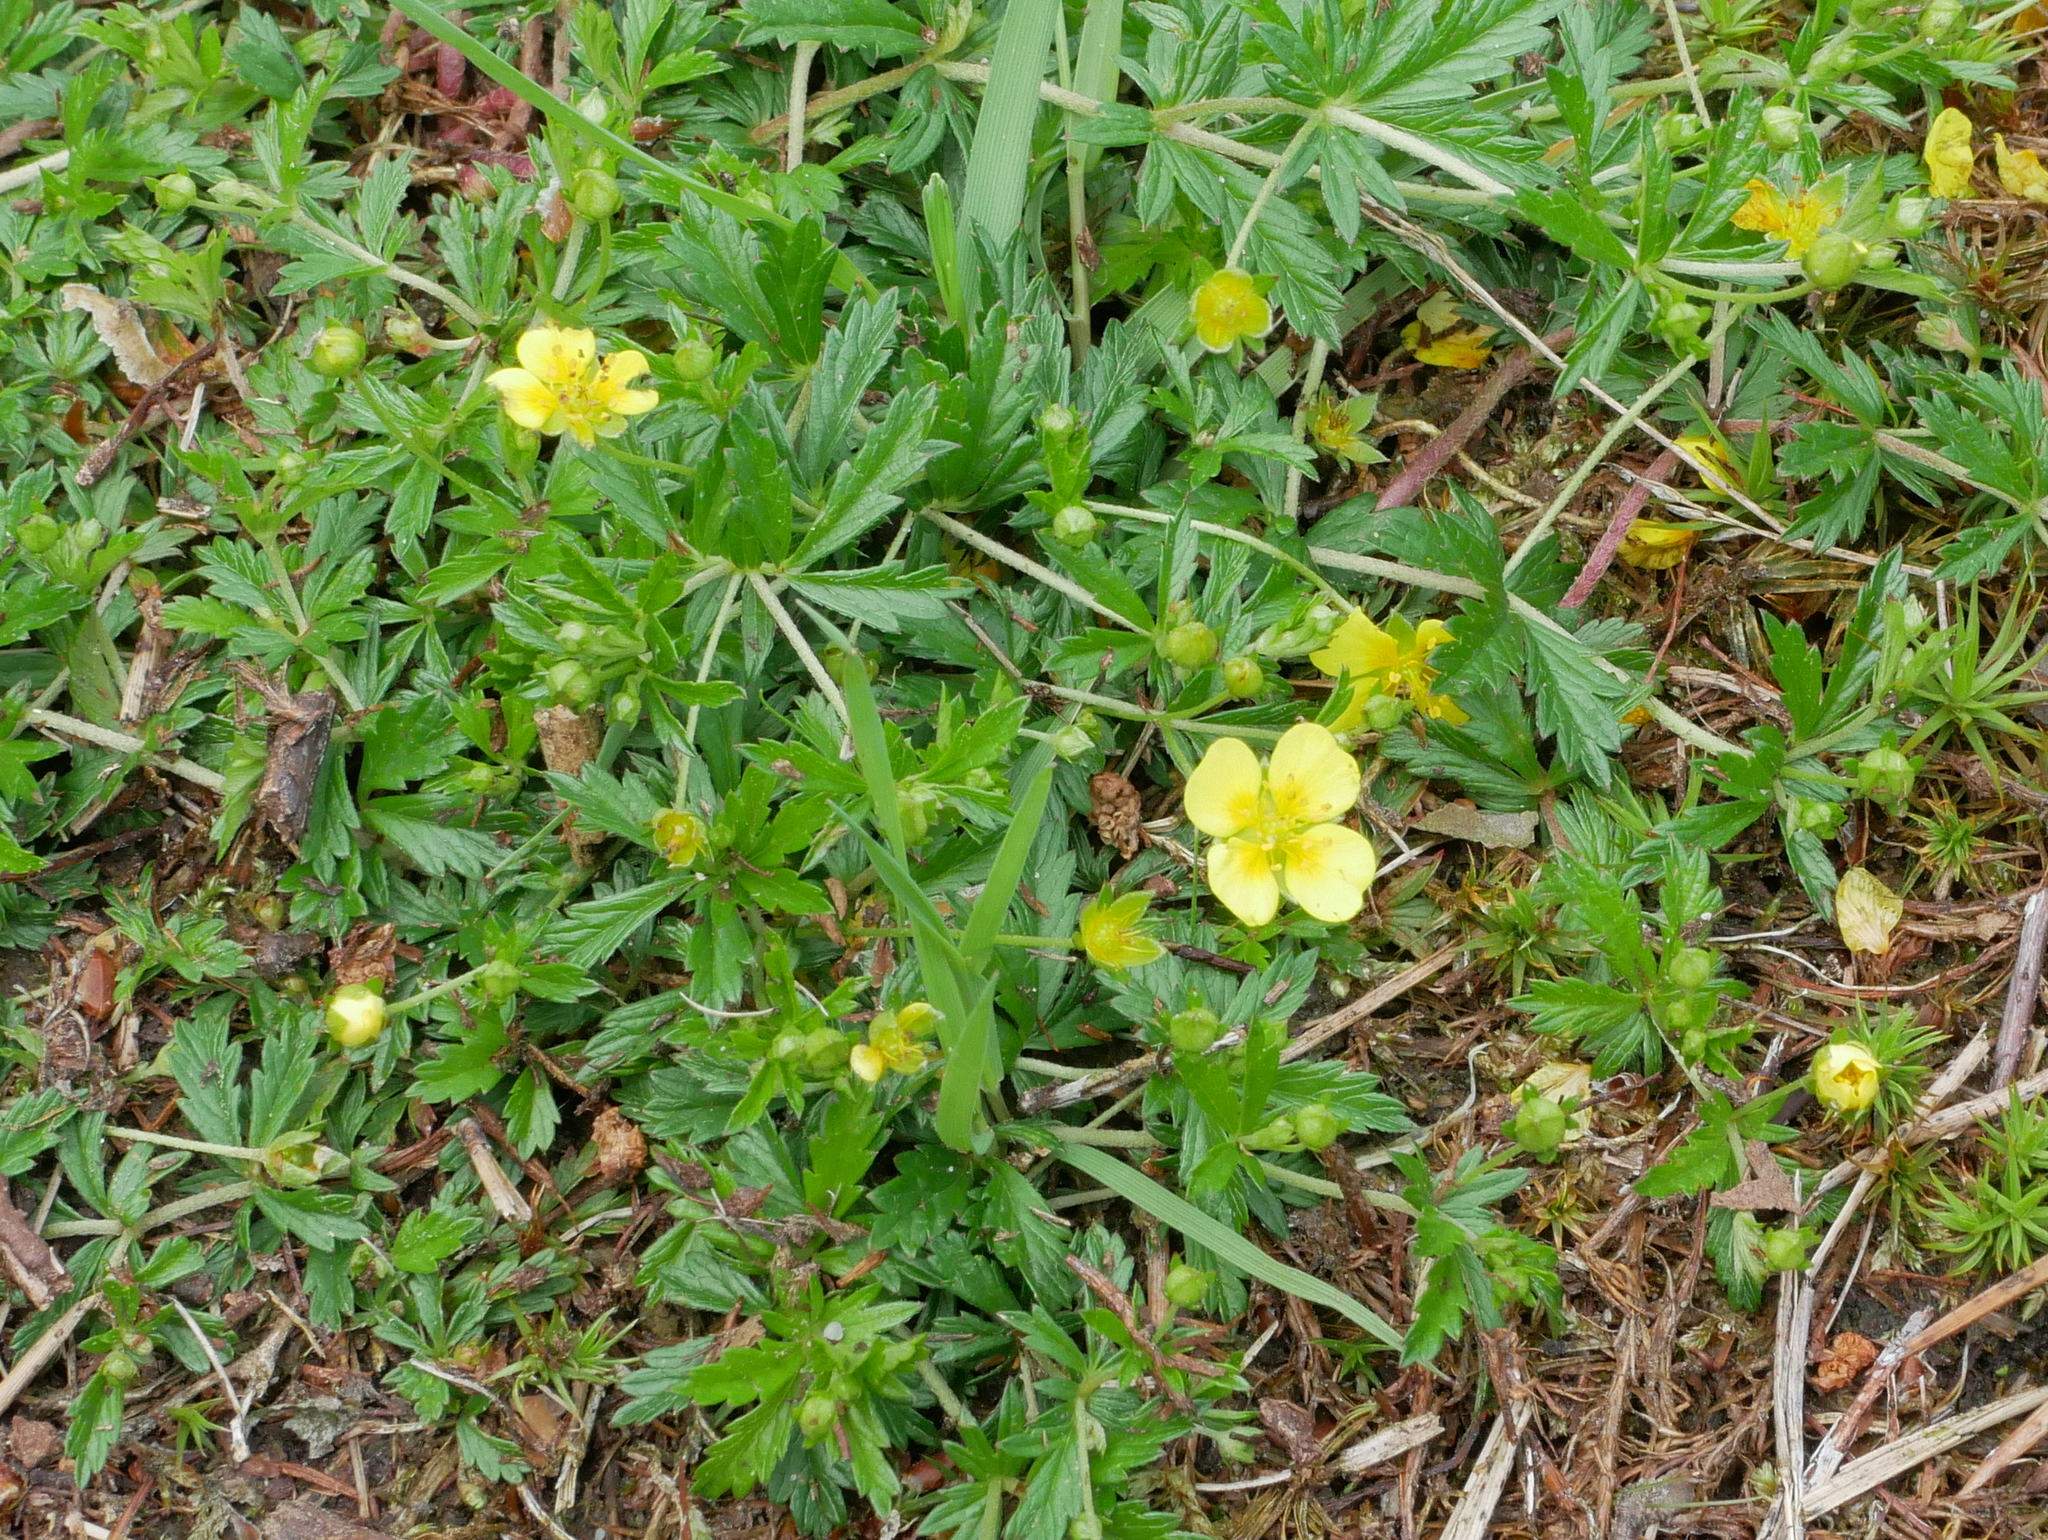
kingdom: Plantae
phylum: Tracheophyta
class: Magnoliopsida
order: Rosales
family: Rosaceae
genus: Potentilla
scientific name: Potentilla erecta
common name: Tormentil
